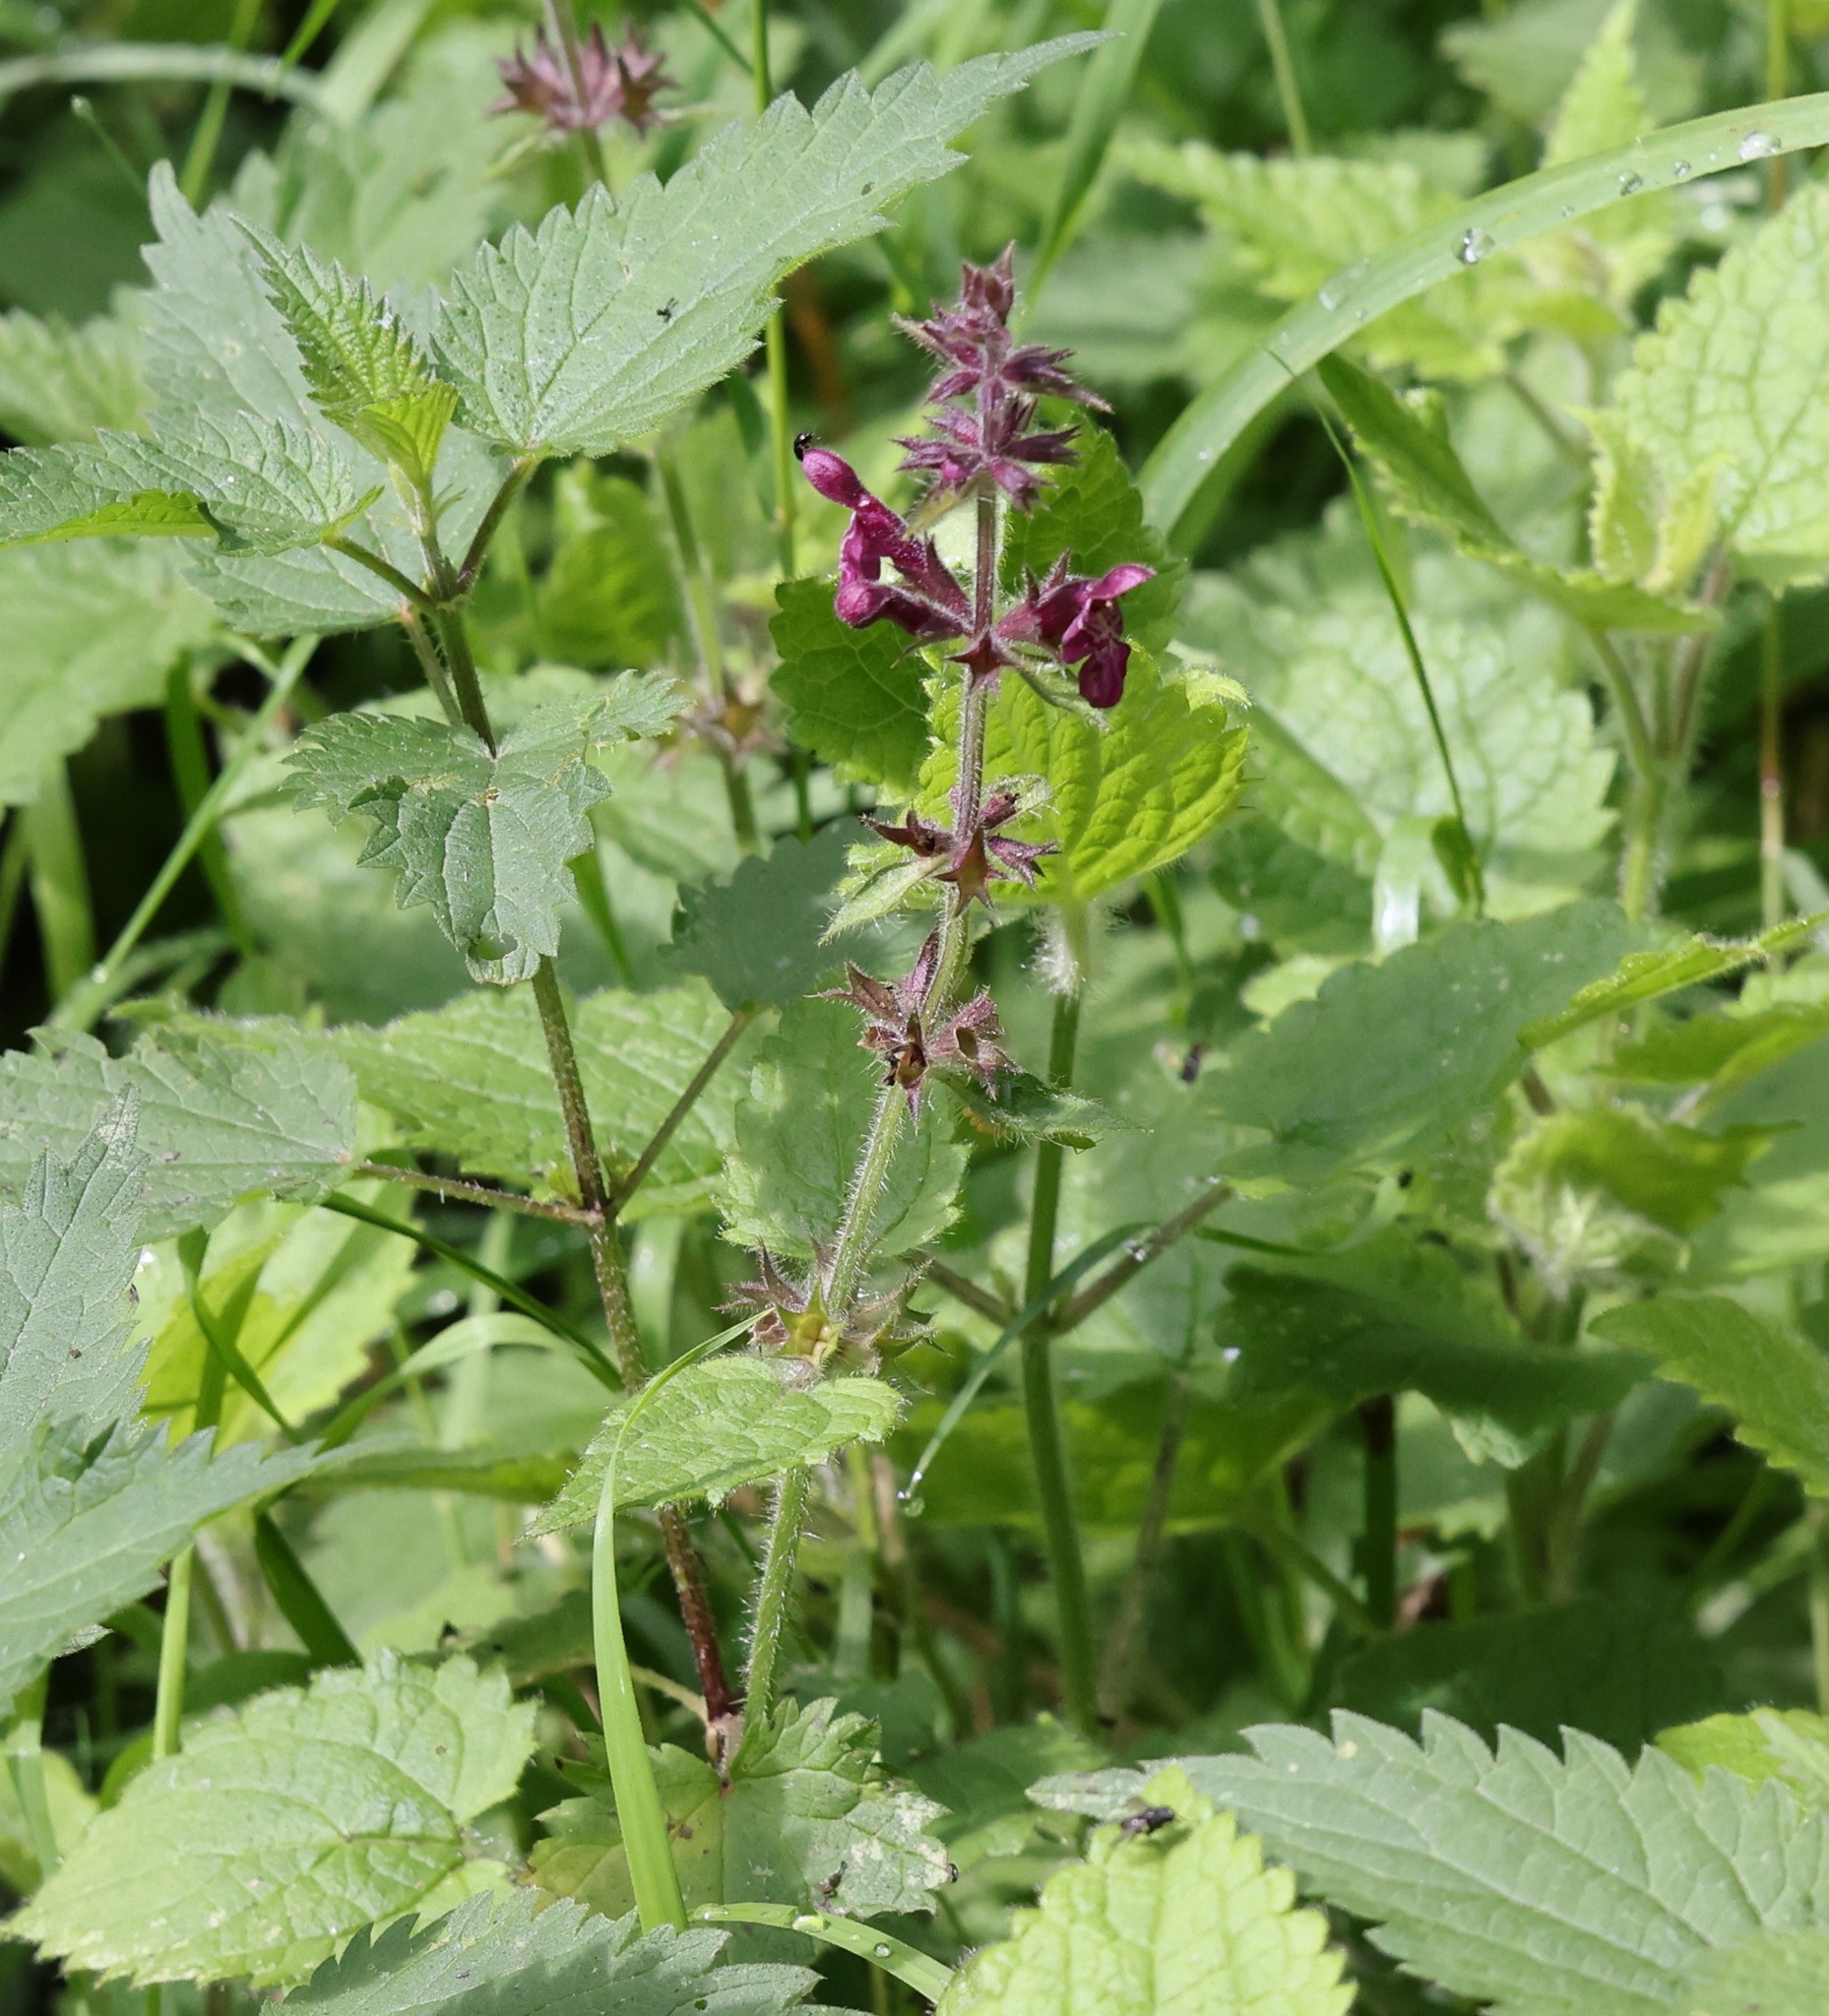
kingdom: Plantae
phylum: Tracheophyta
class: Magnoliopsida
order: Lamiales
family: Lamiaceae
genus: Stachys
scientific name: Stachys sylvatica
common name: Hedge woundwort
